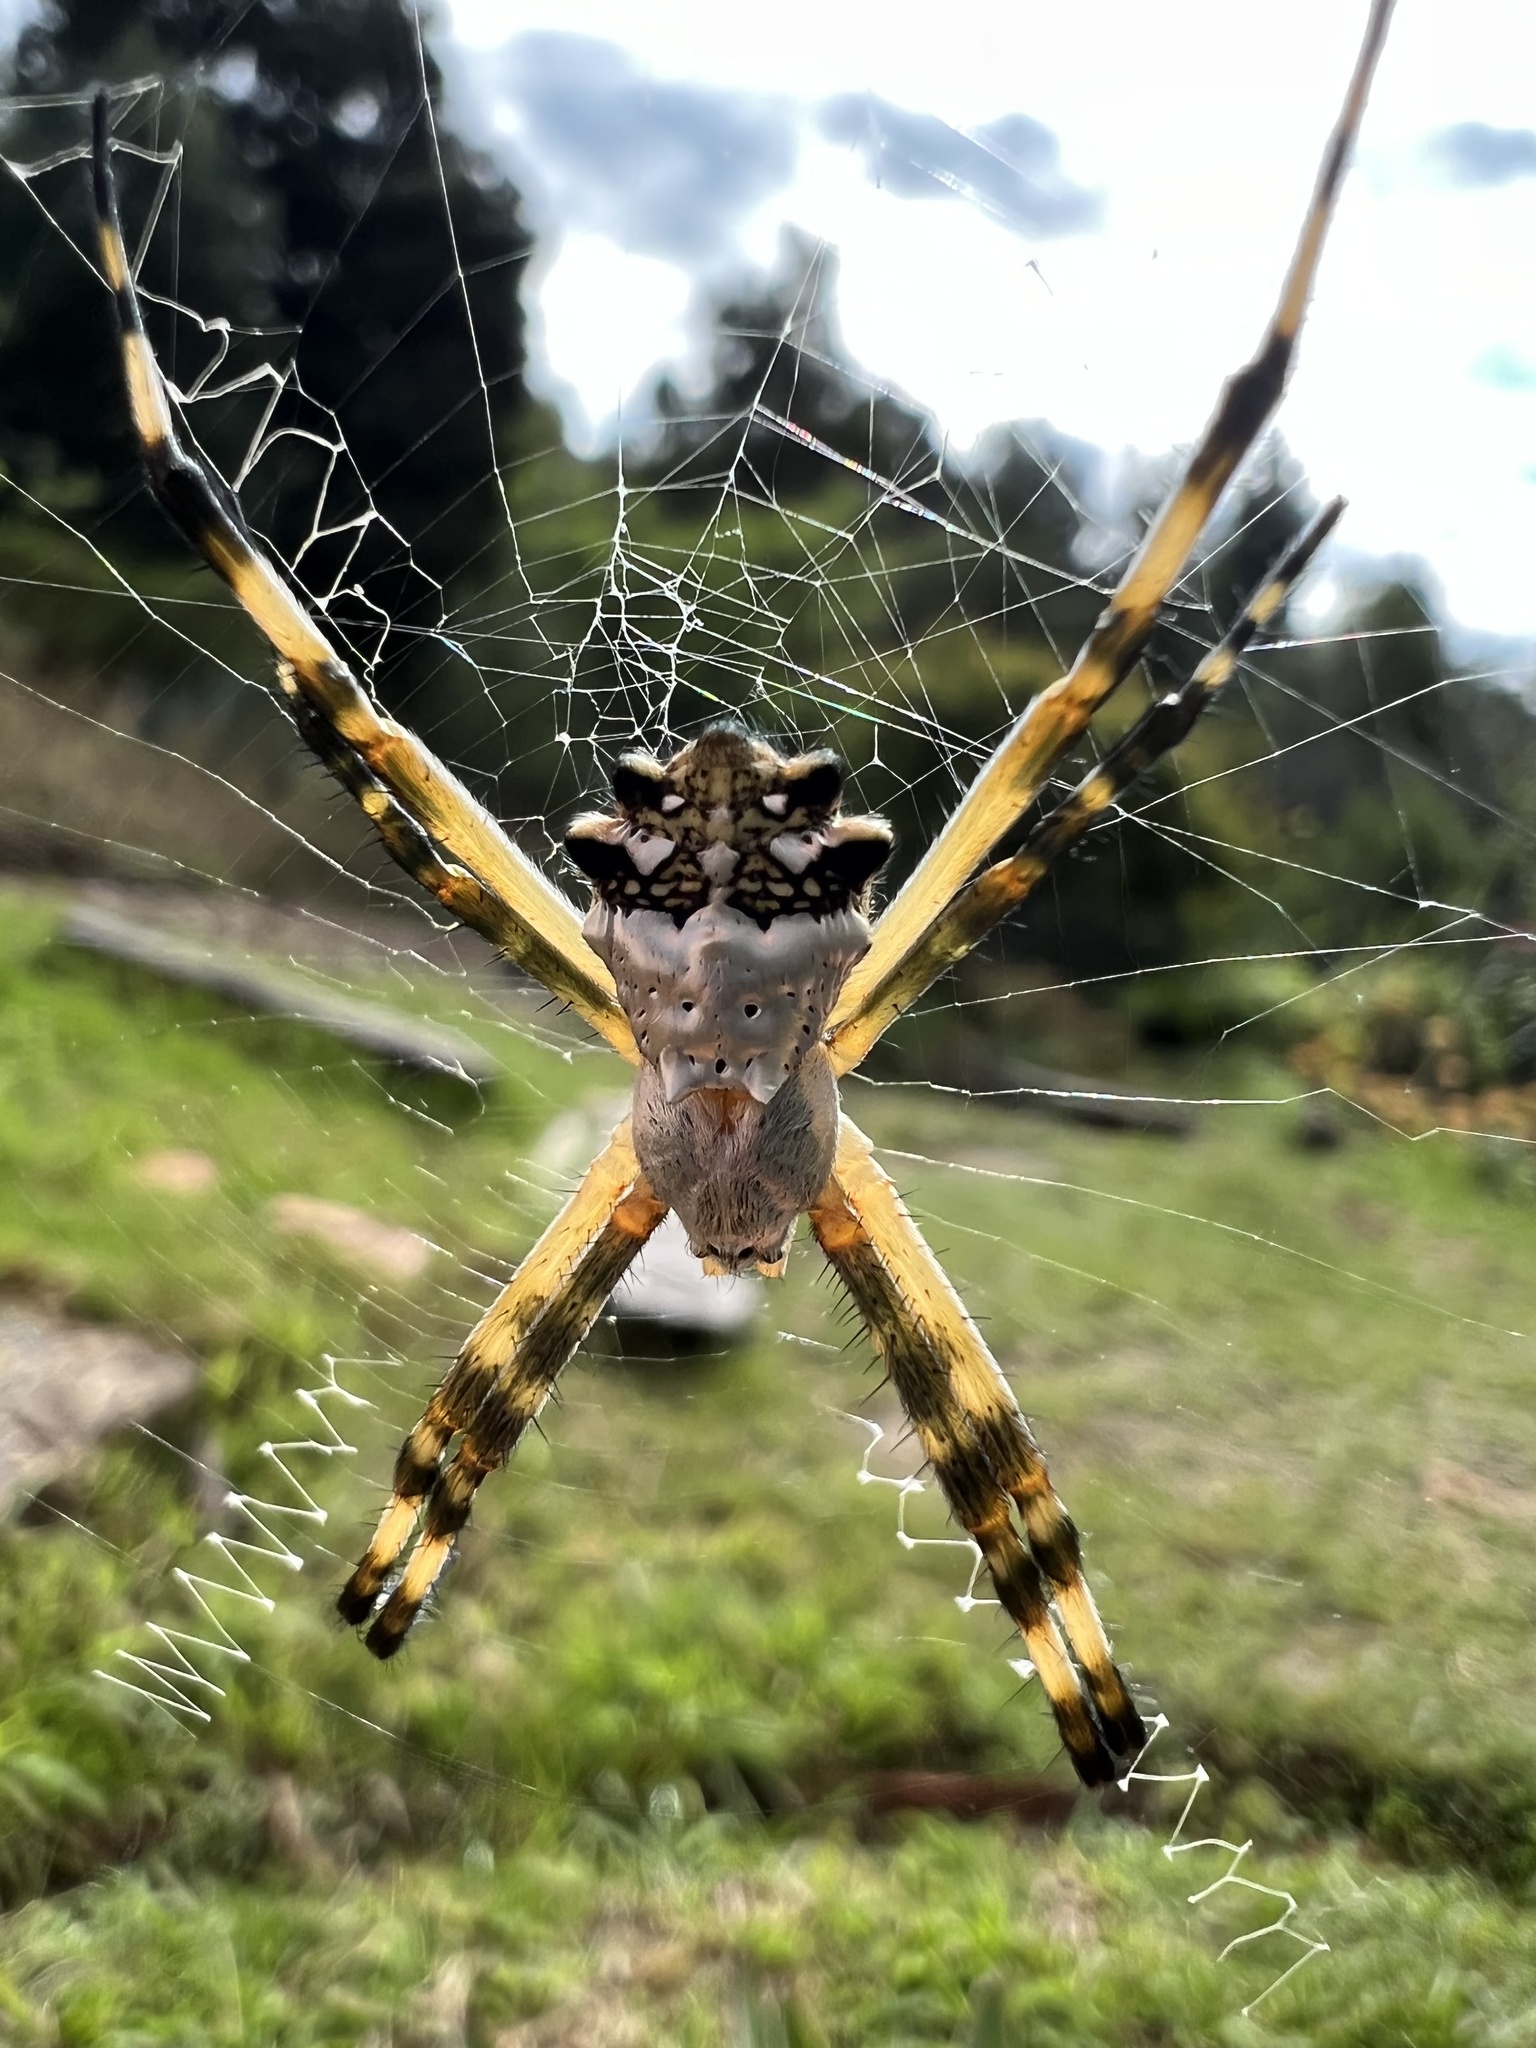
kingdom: Animalia
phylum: Arthropoda
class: Arachnida
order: Araneae
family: Araneidae
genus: Argiope
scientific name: Argiope argentata
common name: Orb weavers
